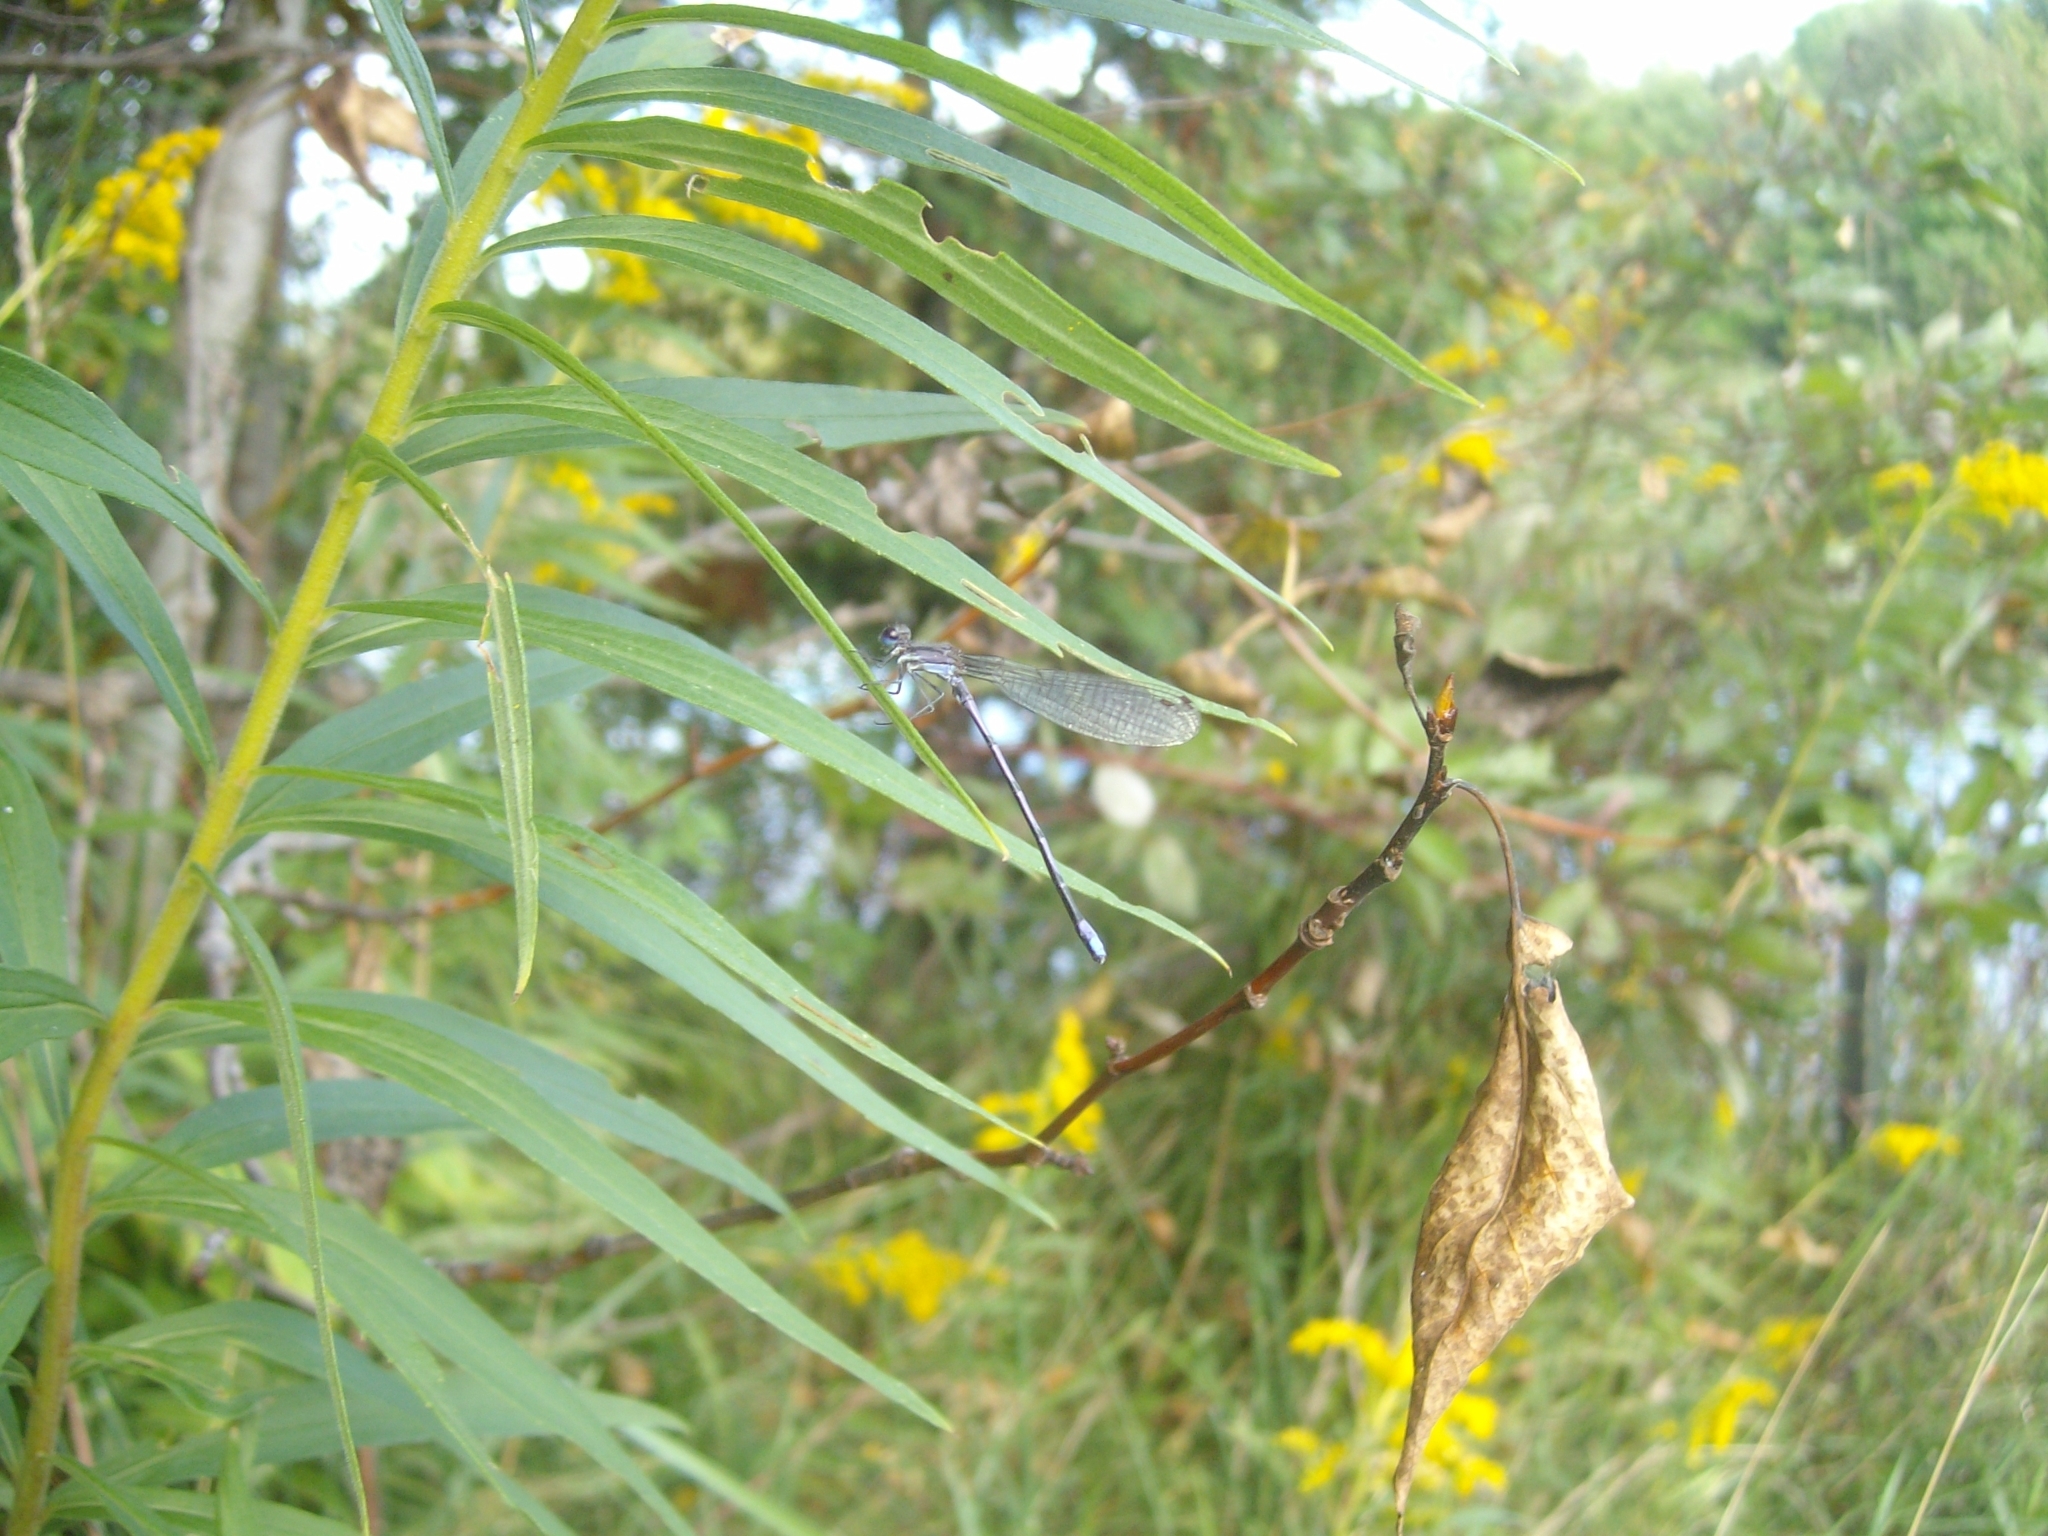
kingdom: Animalia
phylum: Arthropoda
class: Insecta
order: Odonata
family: Coenagrionidae
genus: Argia
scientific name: Argia fumipennis
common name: Variable dancer
